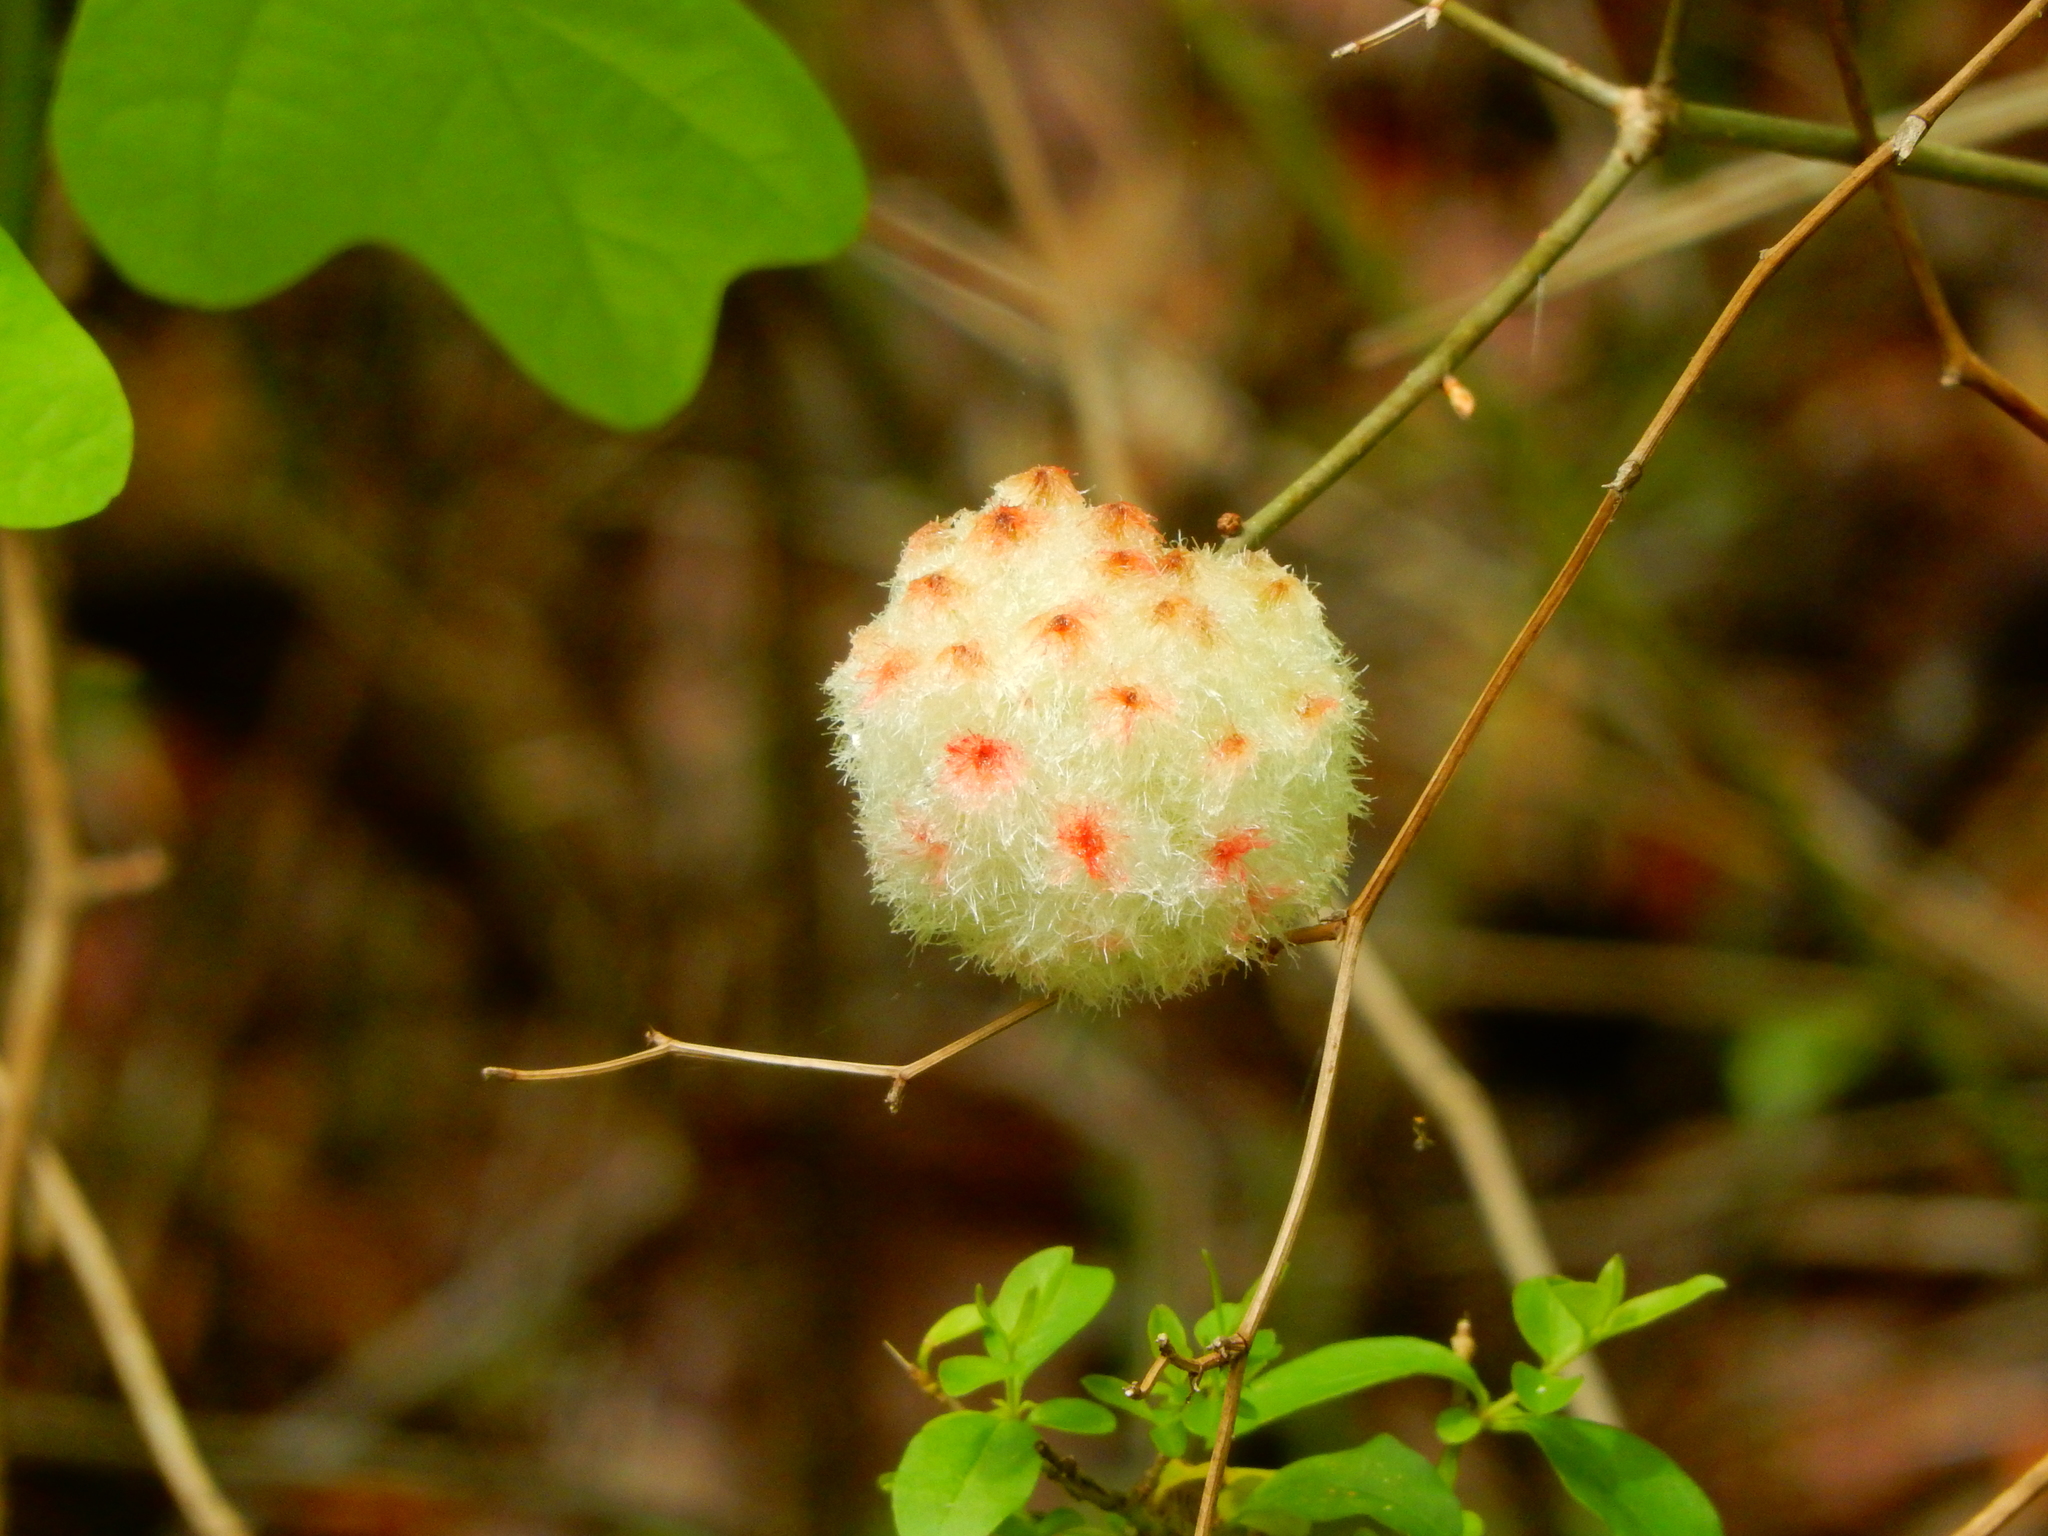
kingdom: Animalia
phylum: Arthropoda
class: Insecta
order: Hymenoptera
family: Cynipidae
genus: Callirhytis
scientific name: Callirhytis
